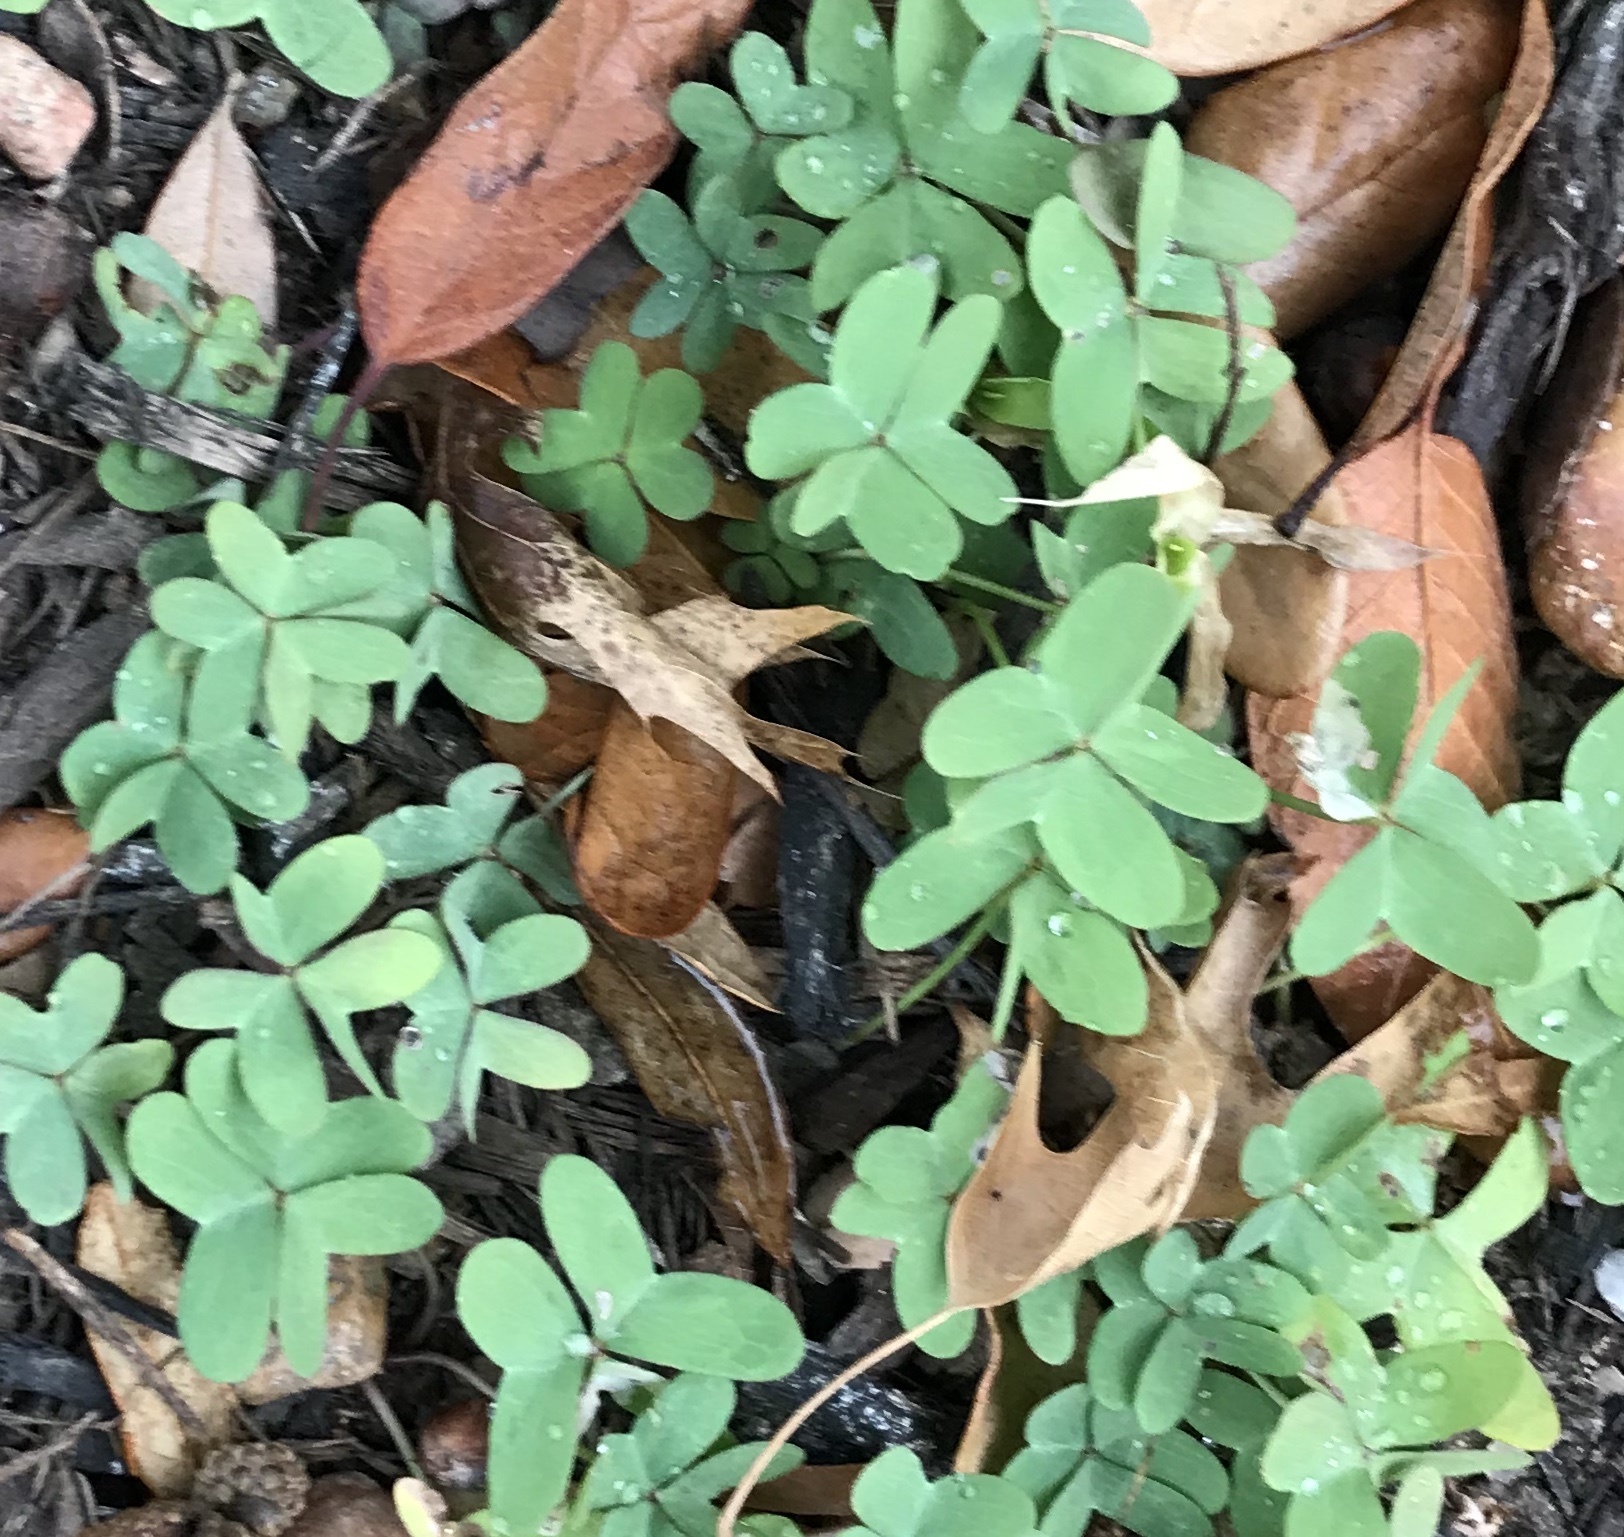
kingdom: Plantae
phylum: Tracheophyta
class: Magnoliopsida
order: Oxalidales
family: Oxalidaceae
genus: Oxalis
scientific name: Oxalis drummondii
